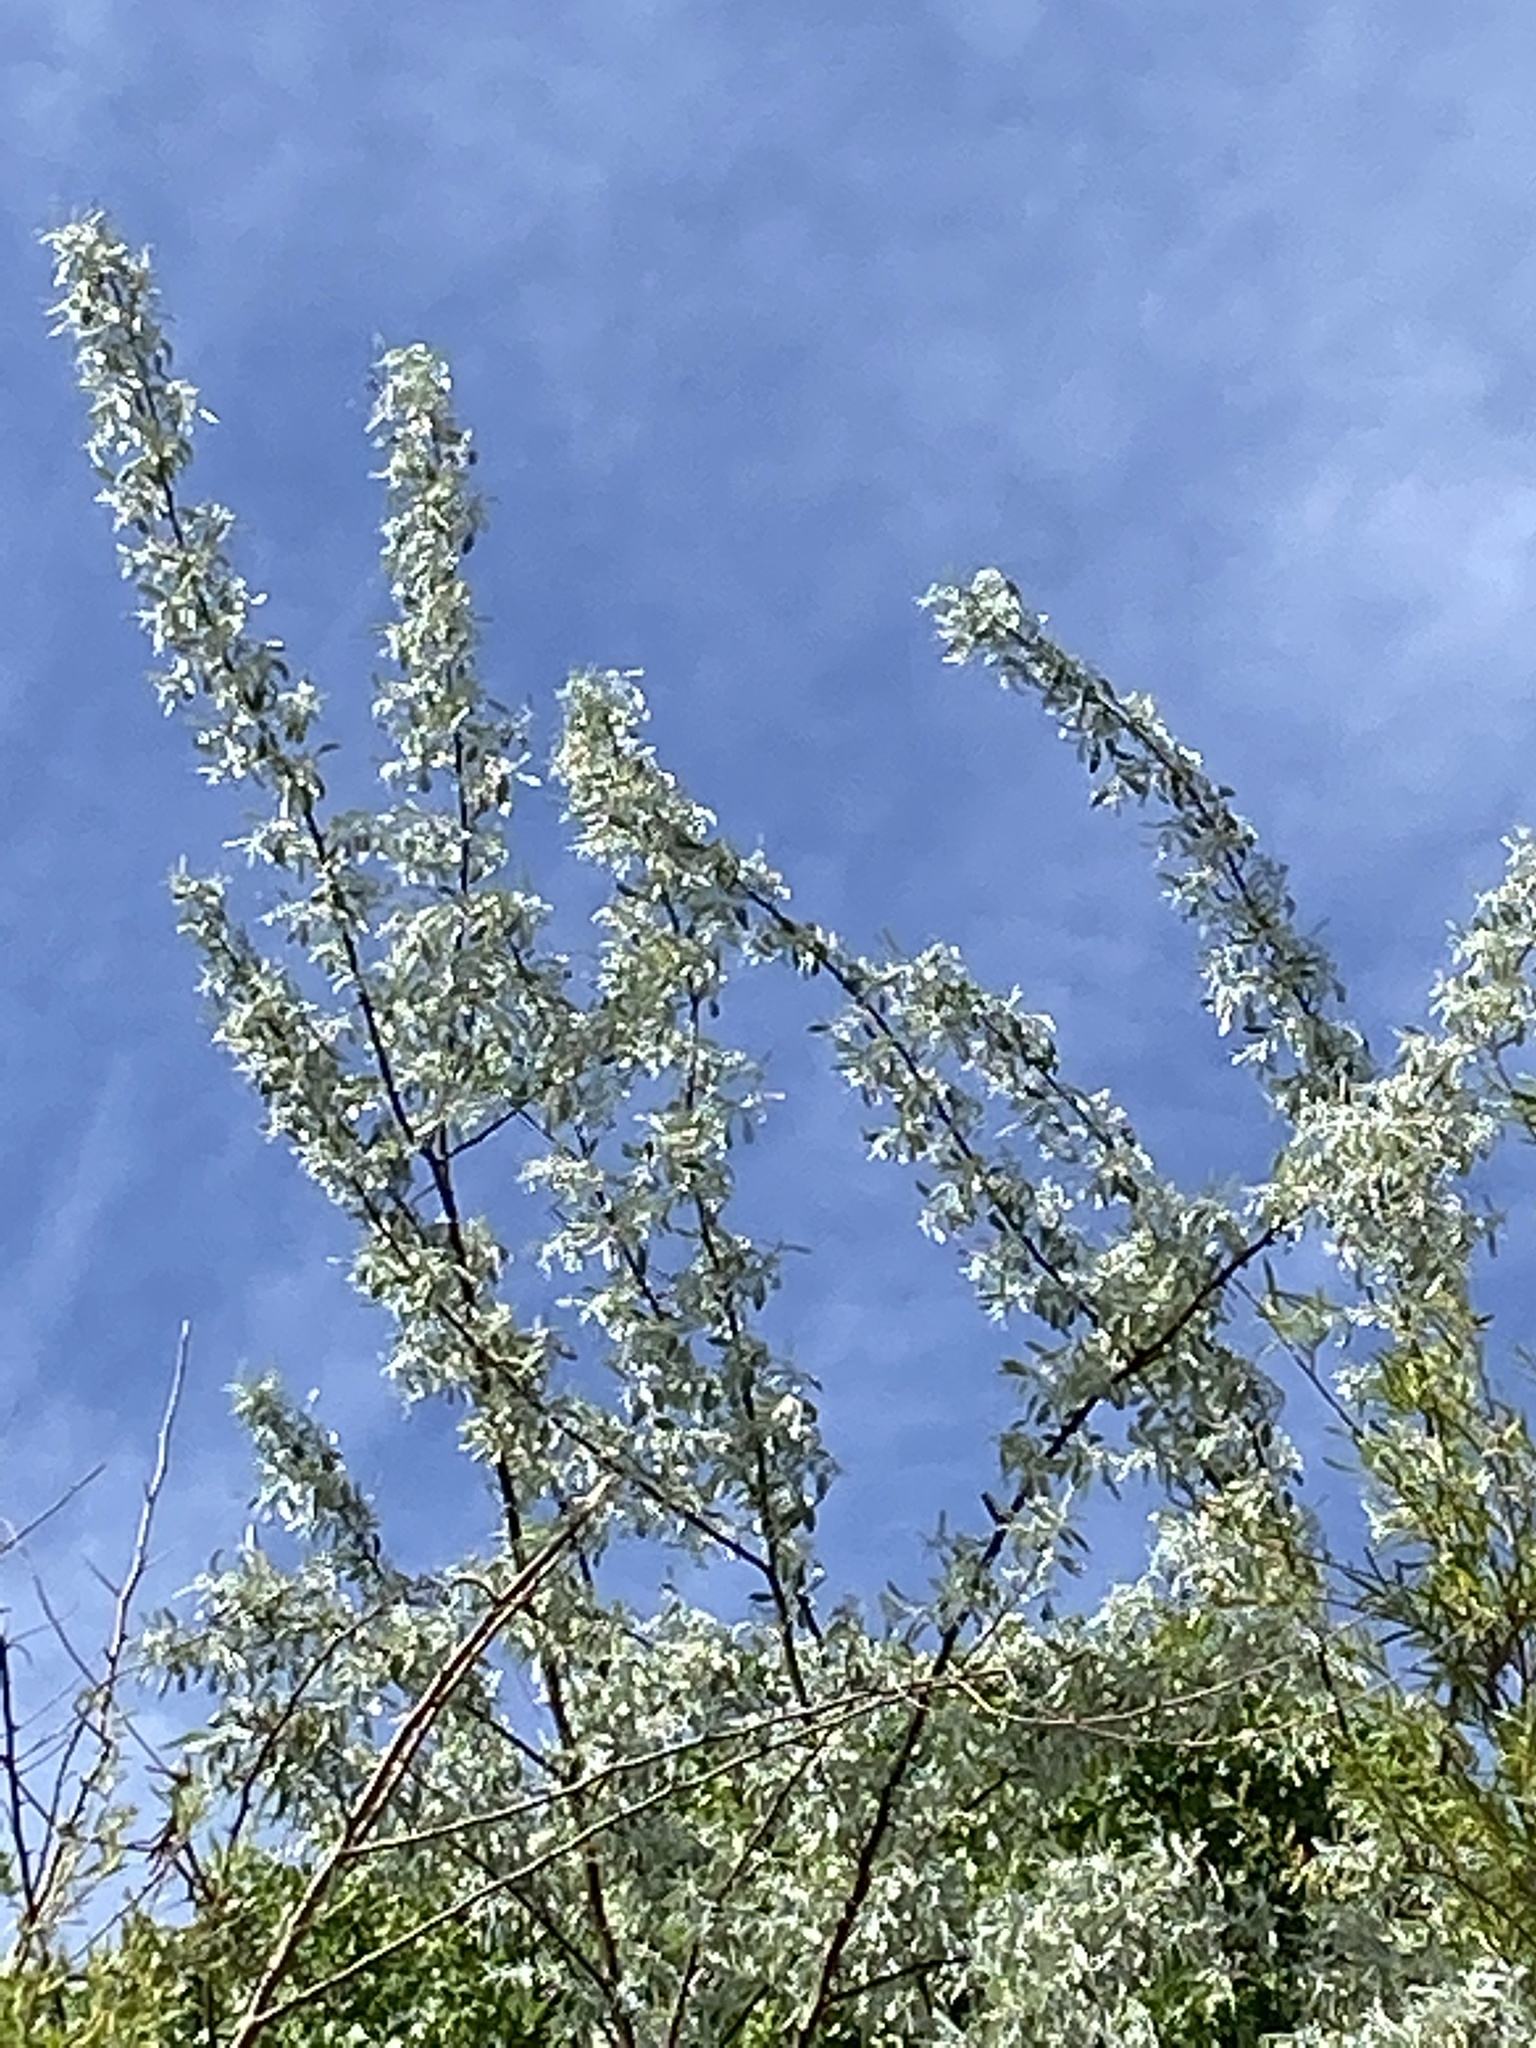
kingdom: Plantae
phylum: Tracheophyta
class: Magnoliopsida
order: Rosales
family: Elaeagnaceae
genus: Elaeagnus
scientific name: Elaeagnus angustifolia
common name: Russian olive
